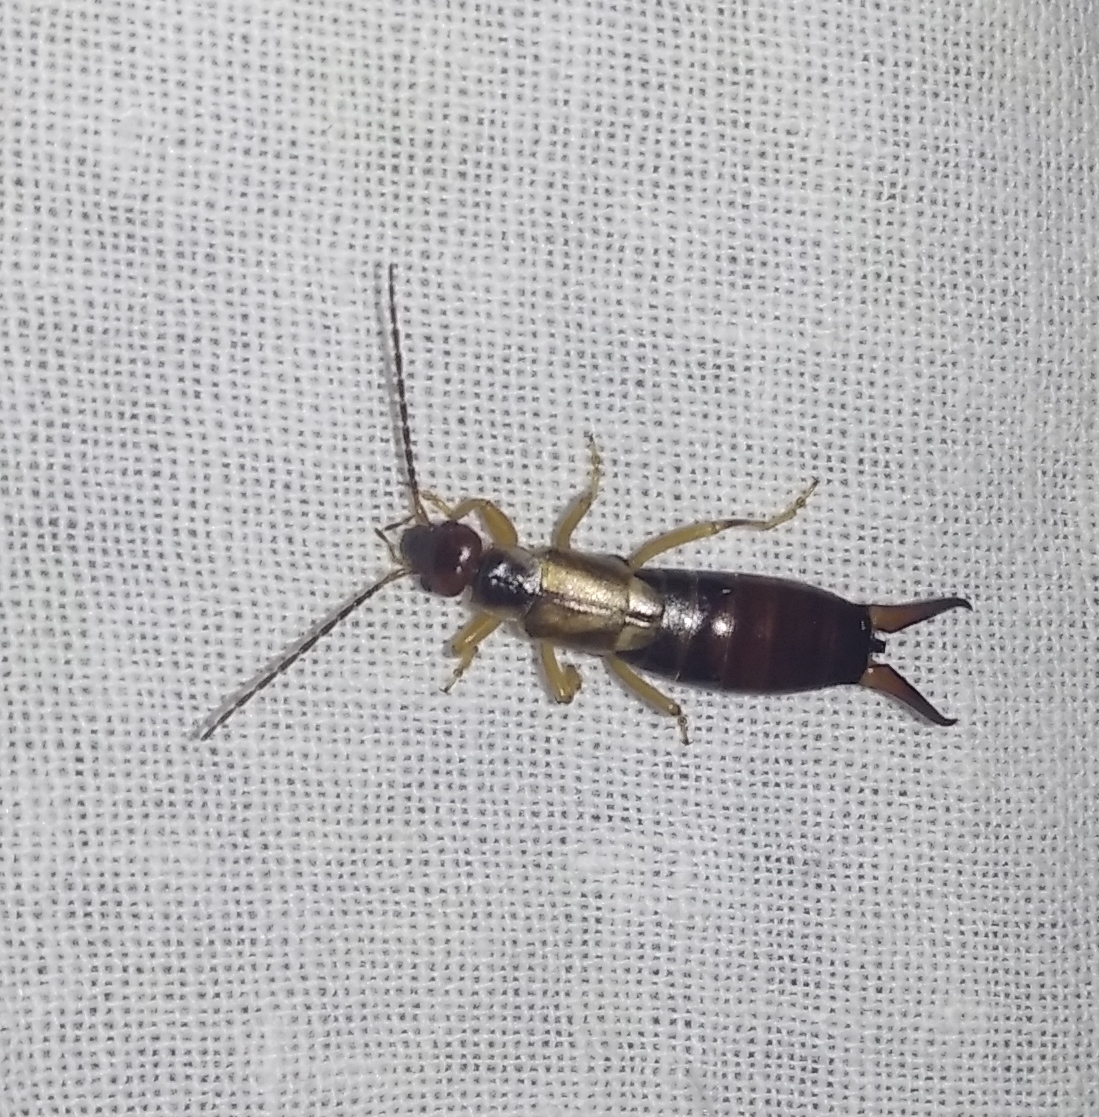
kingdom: Animalia
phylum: Arthropoda
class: Insecta
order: Dermaptera
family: Forficulidae
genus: Forficula
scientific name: Forficula
